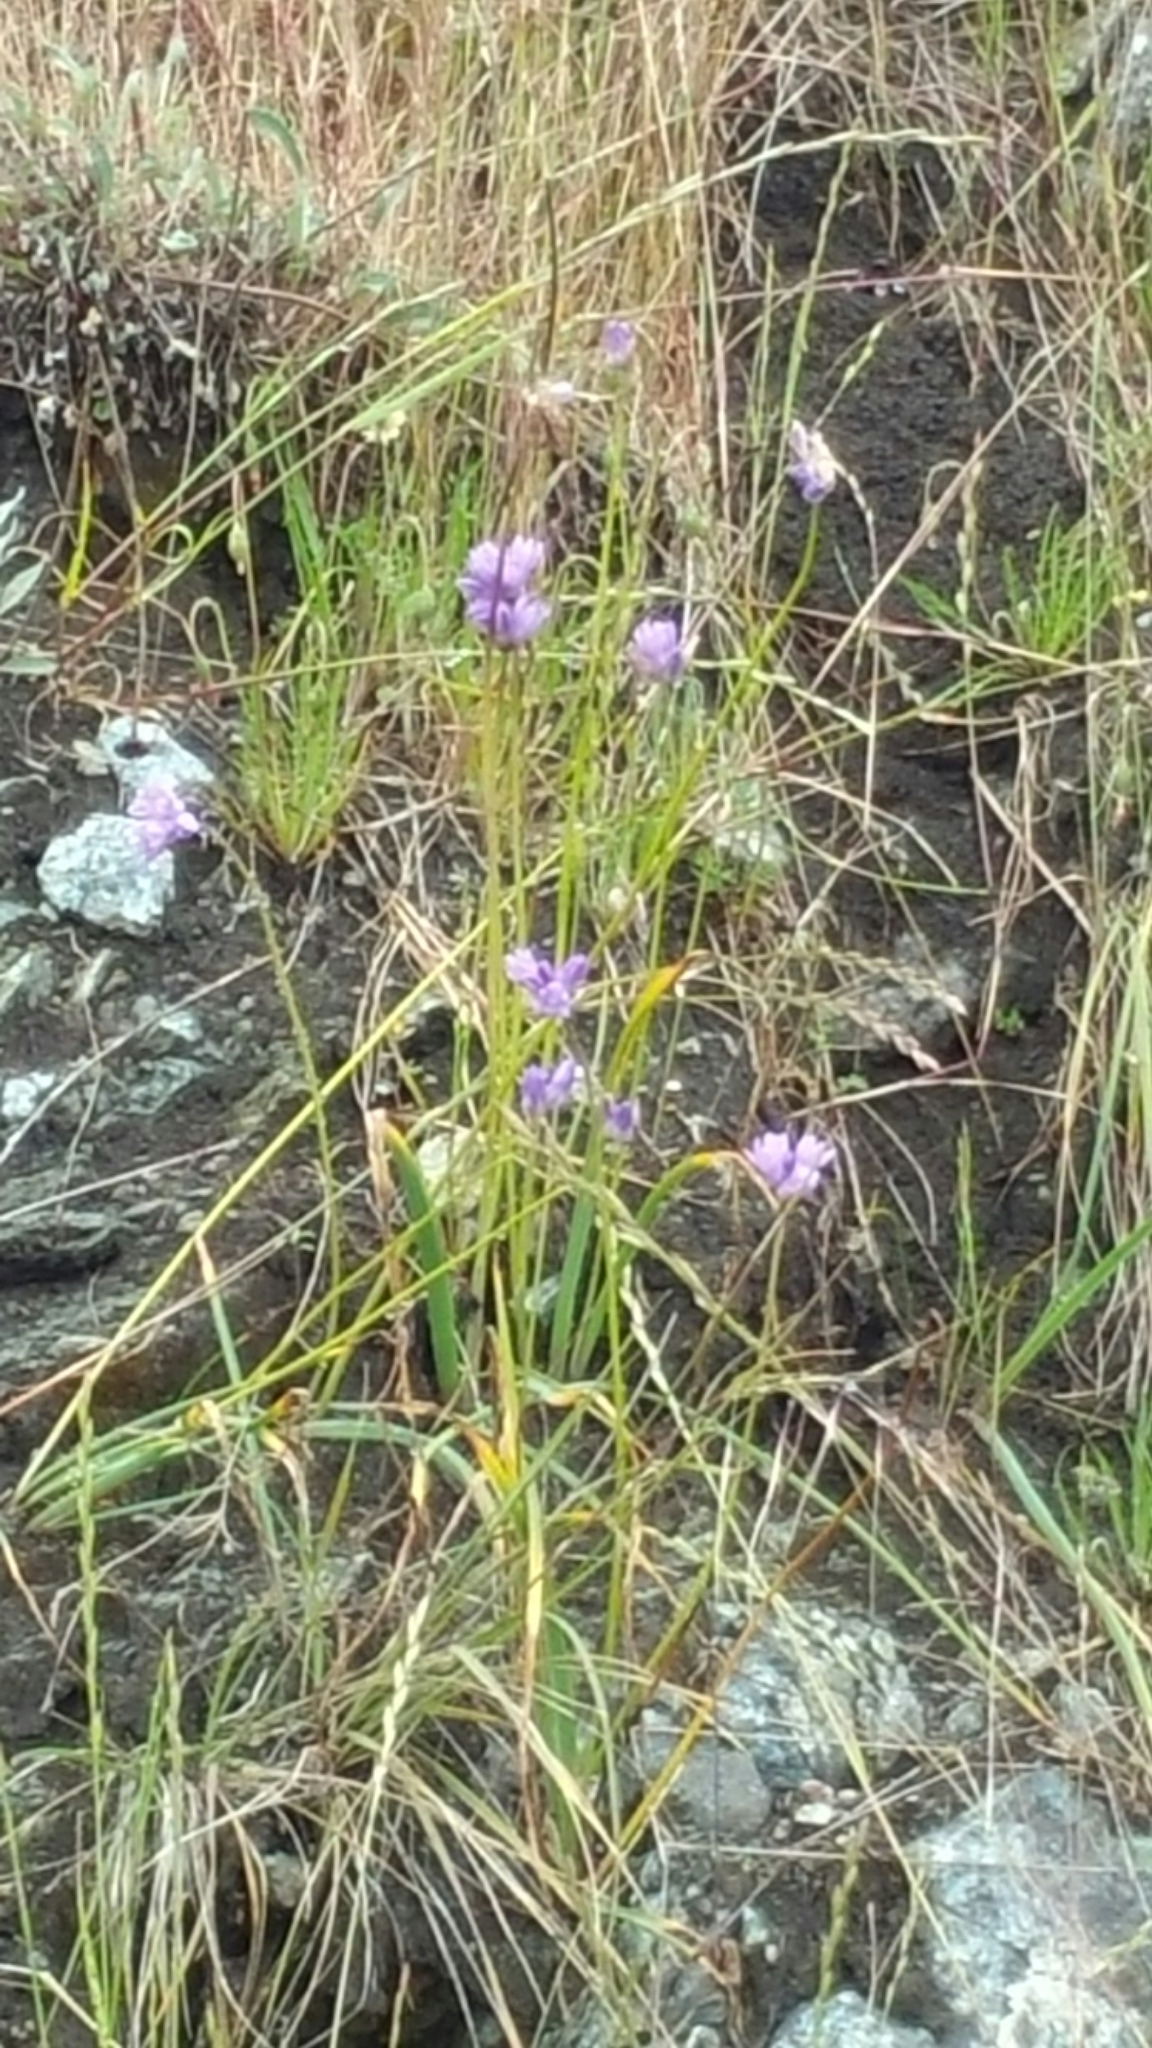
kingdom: Plantae
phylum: Tracheophyta
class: Liliopsida
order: Asparagales
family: Asparagaceae
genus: Dipterostemon
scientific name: Dipterostemon capitatus
